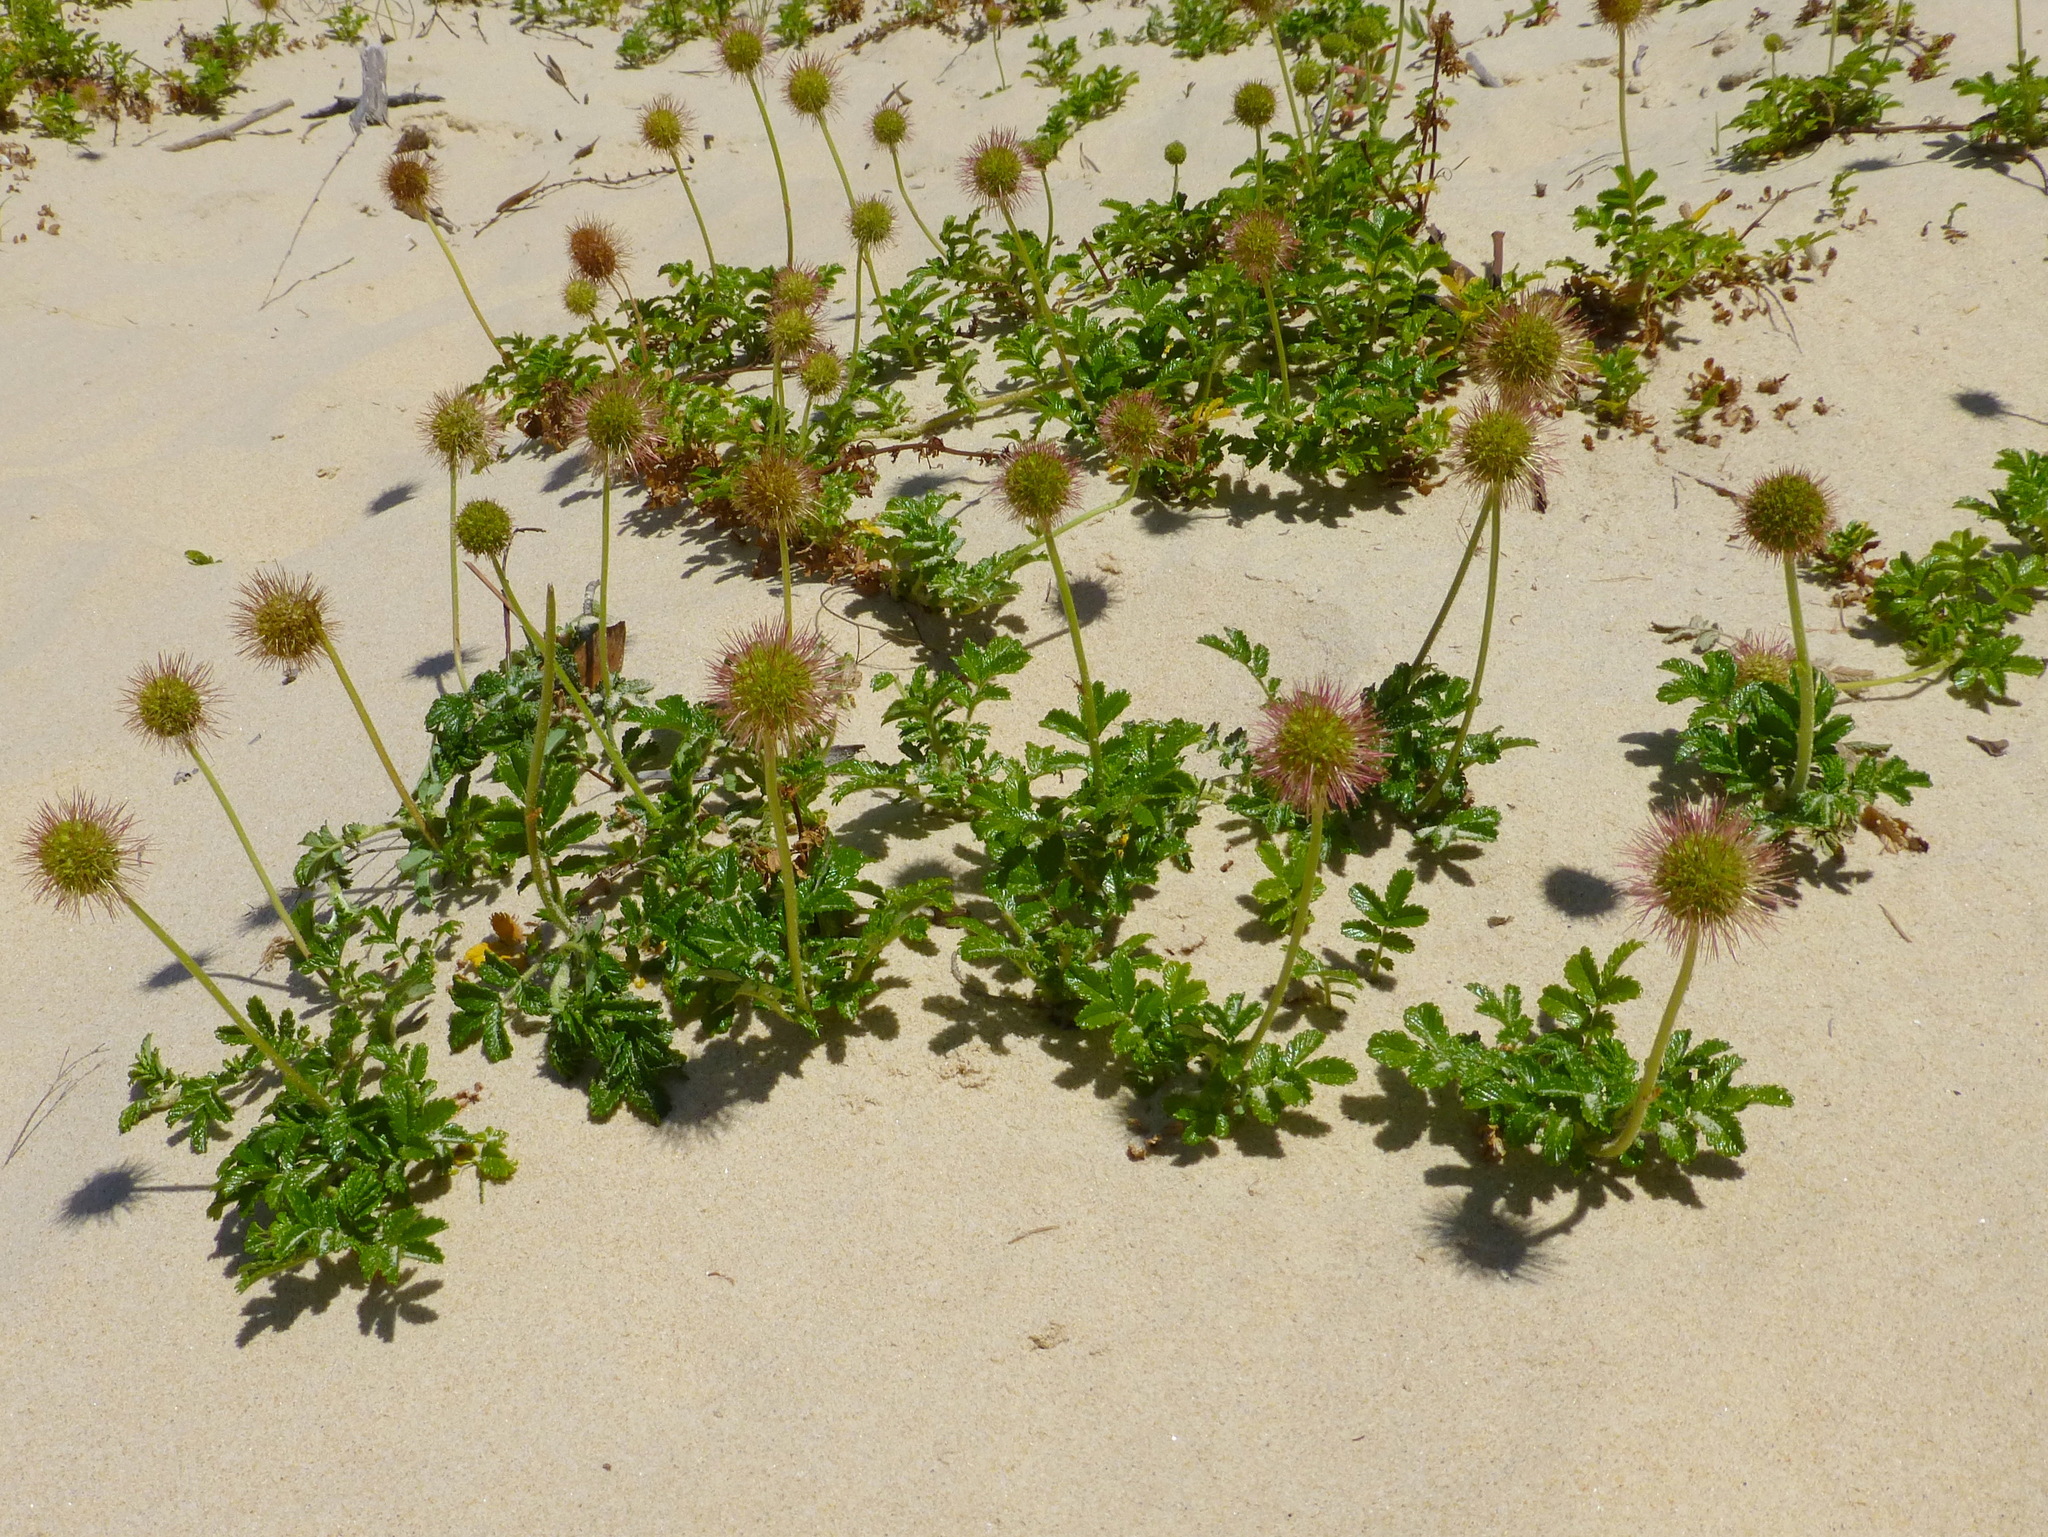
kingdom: Plantae
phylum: Tracheophyta
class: Magnoliopsida
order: Rosales
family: Rosaceae
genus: Acaena
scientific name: Acaena pallida
